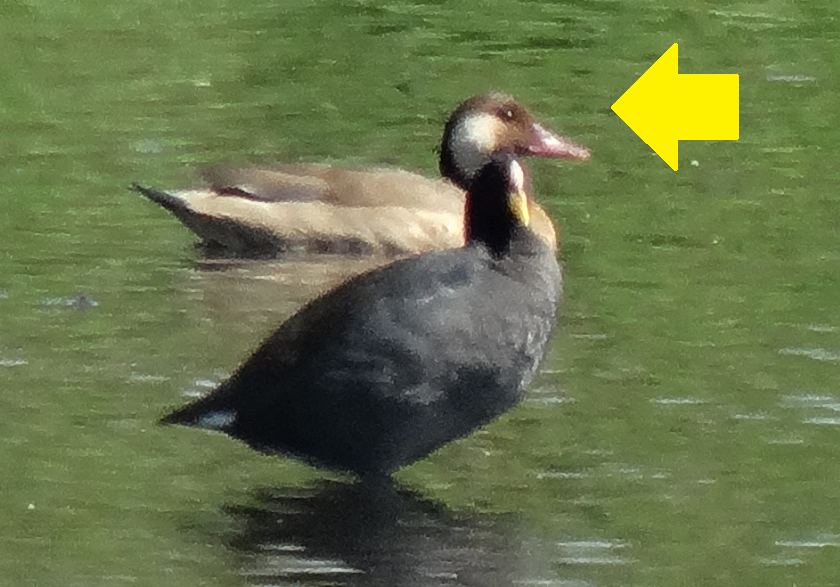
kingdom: Animalia
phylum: Chordata
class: Aves
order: Anseriformes
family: Anatidae
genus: Amazonetta
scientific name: Amazonetta brasiliensis
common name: Brazilian teal
